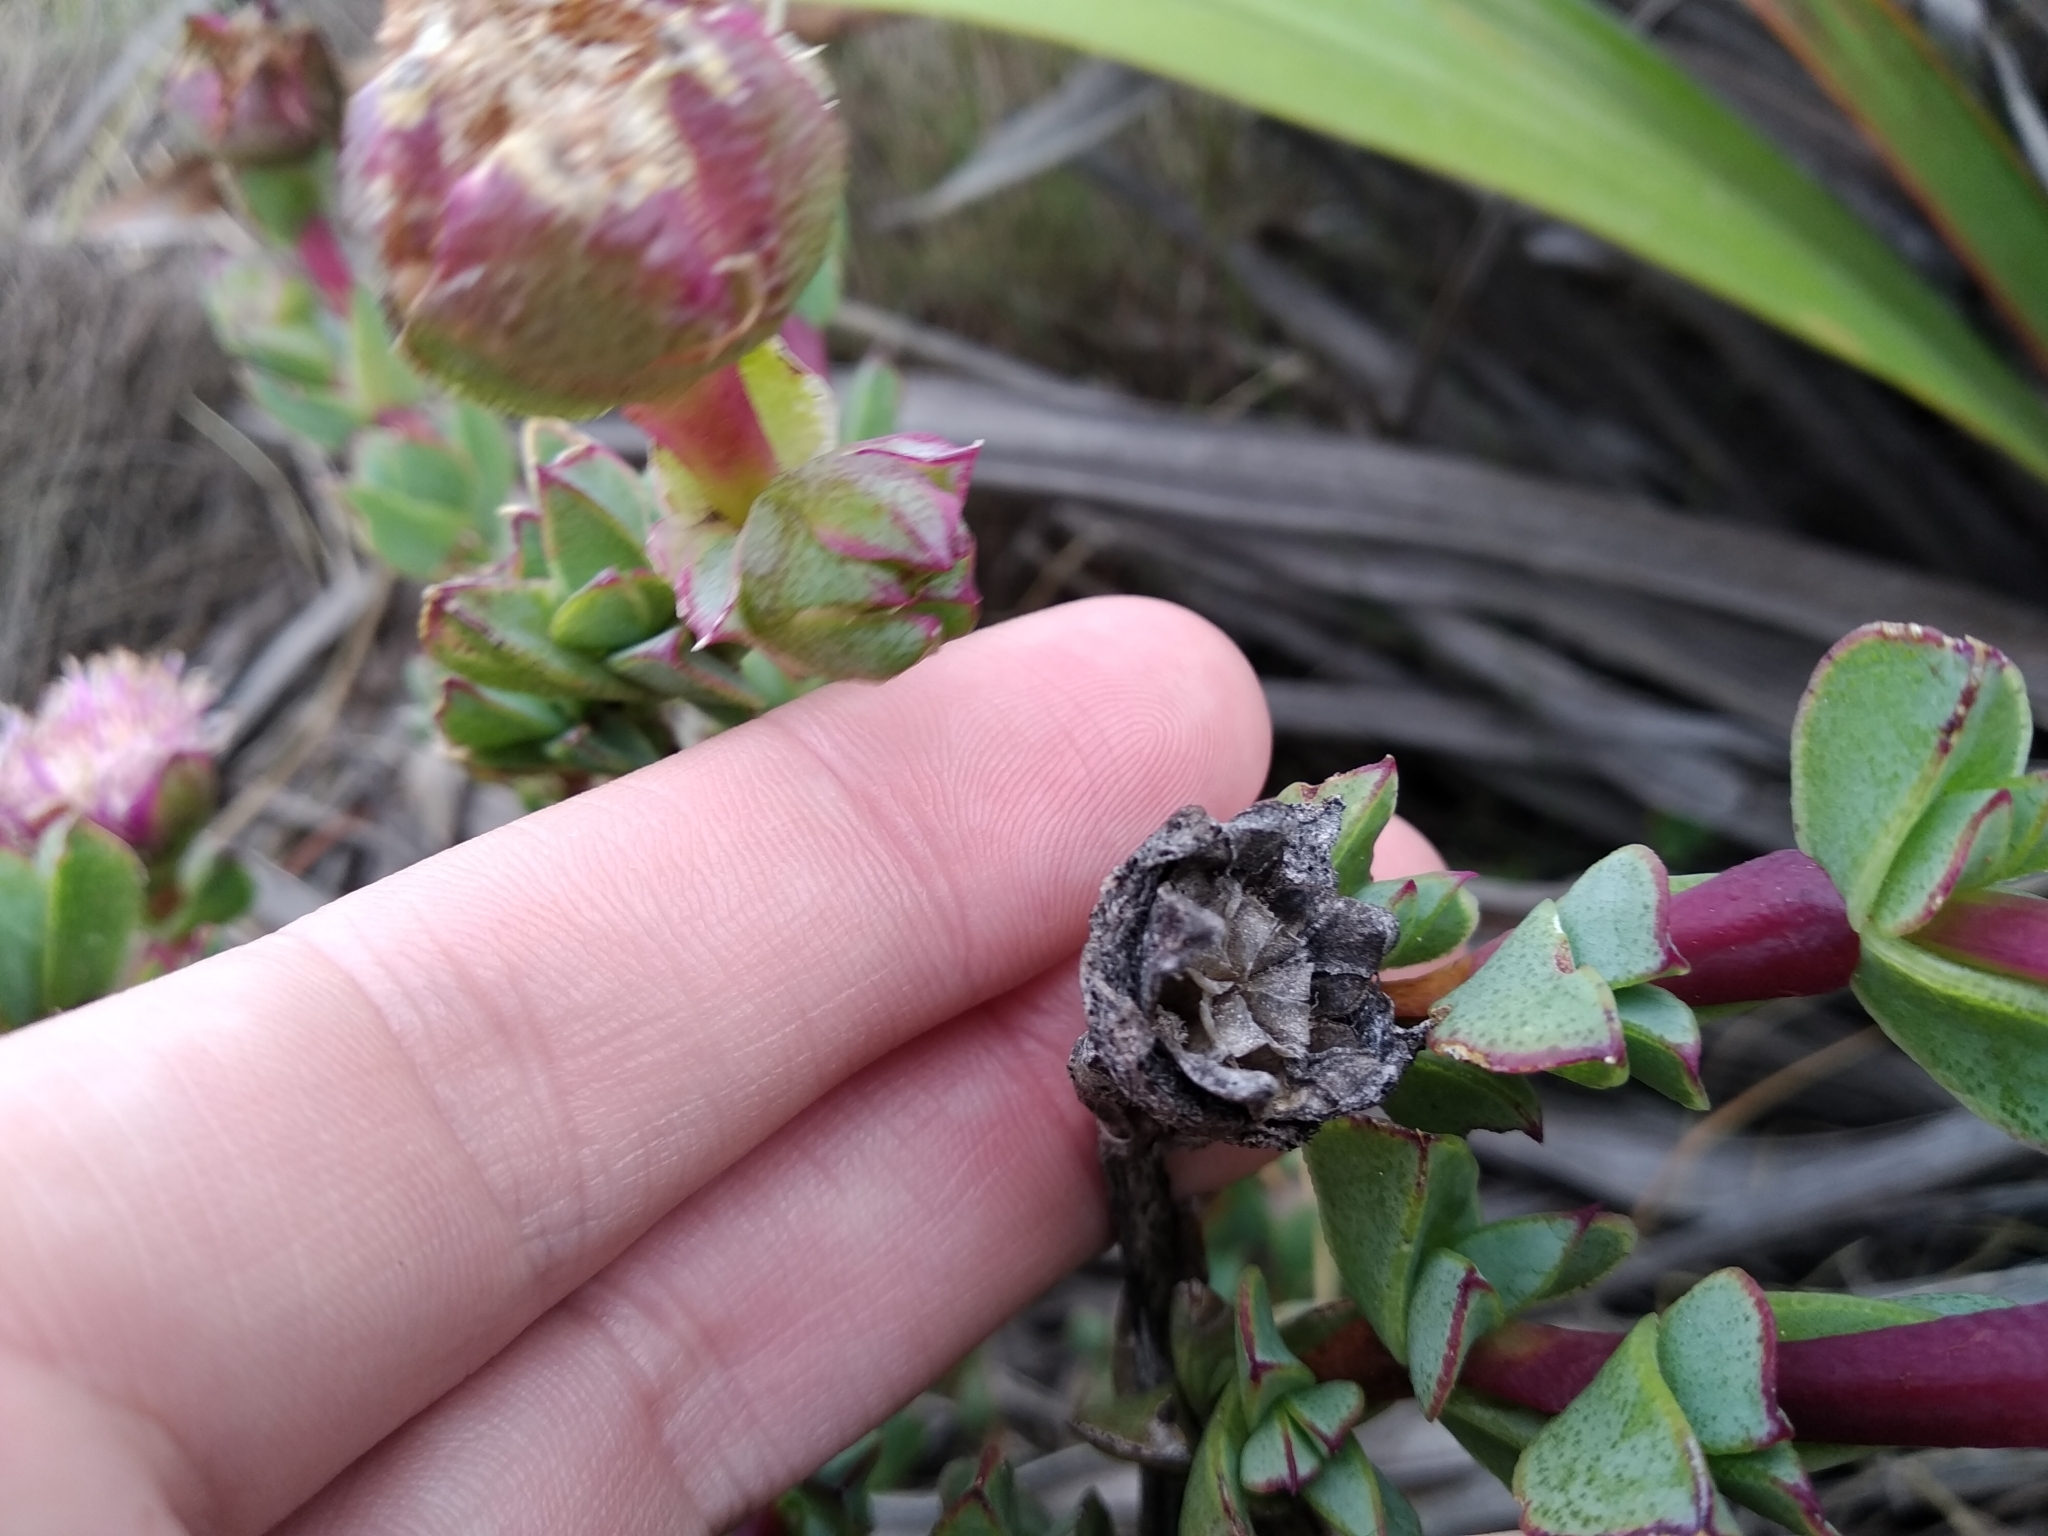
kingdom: Plantae
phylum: Tracheophyta
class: Magnoliopsida
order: Caryophyllales
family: Aizoaceae
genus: Erepsia
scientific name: Erepsia forficata
